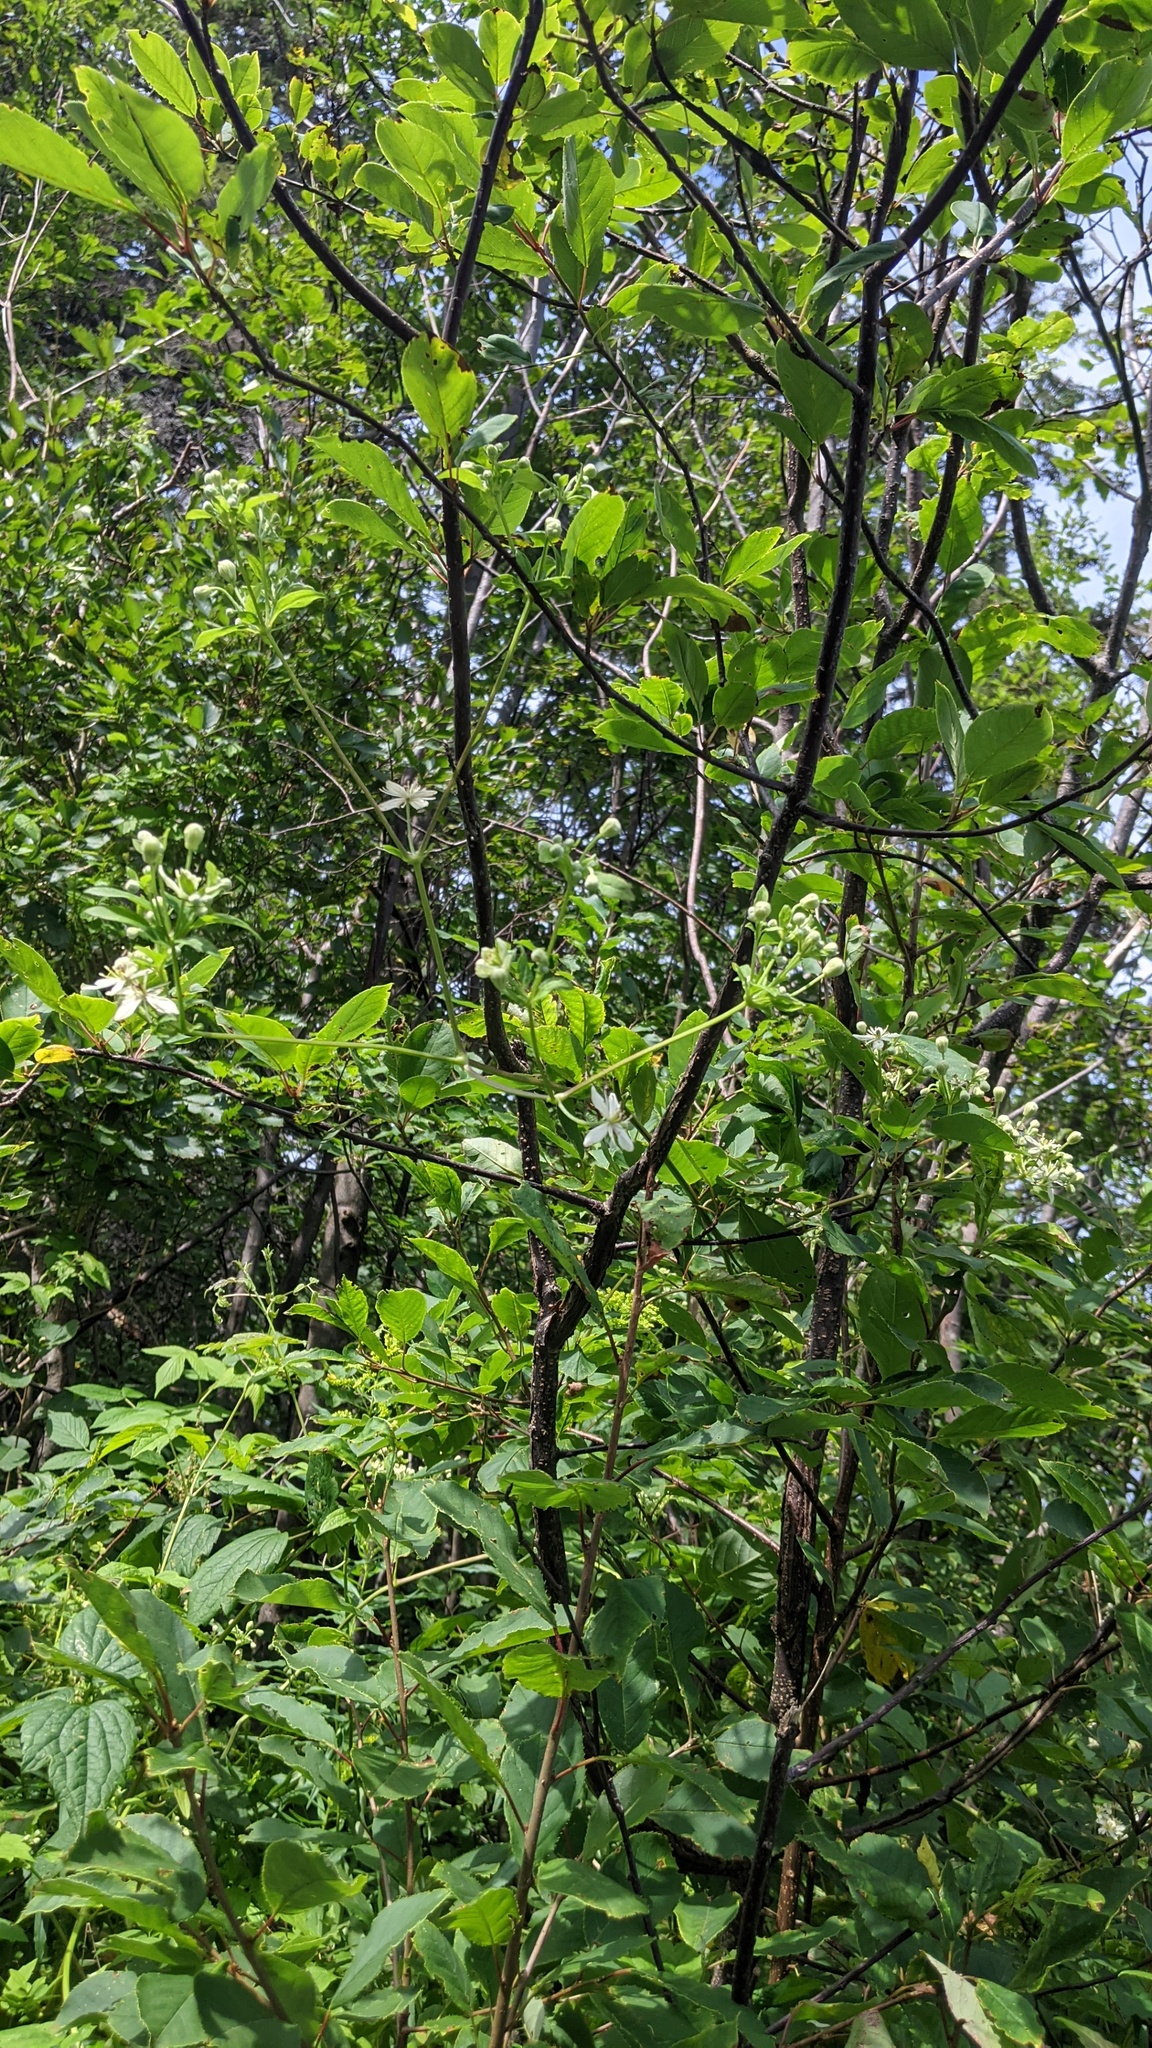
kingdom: Plantae
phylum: Tracheophyta
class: Magnoliopsida
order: Ranunculales
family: Ranunculaceae
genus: Clematis
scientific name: Clematis virginiana
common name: Virgin's-bower
